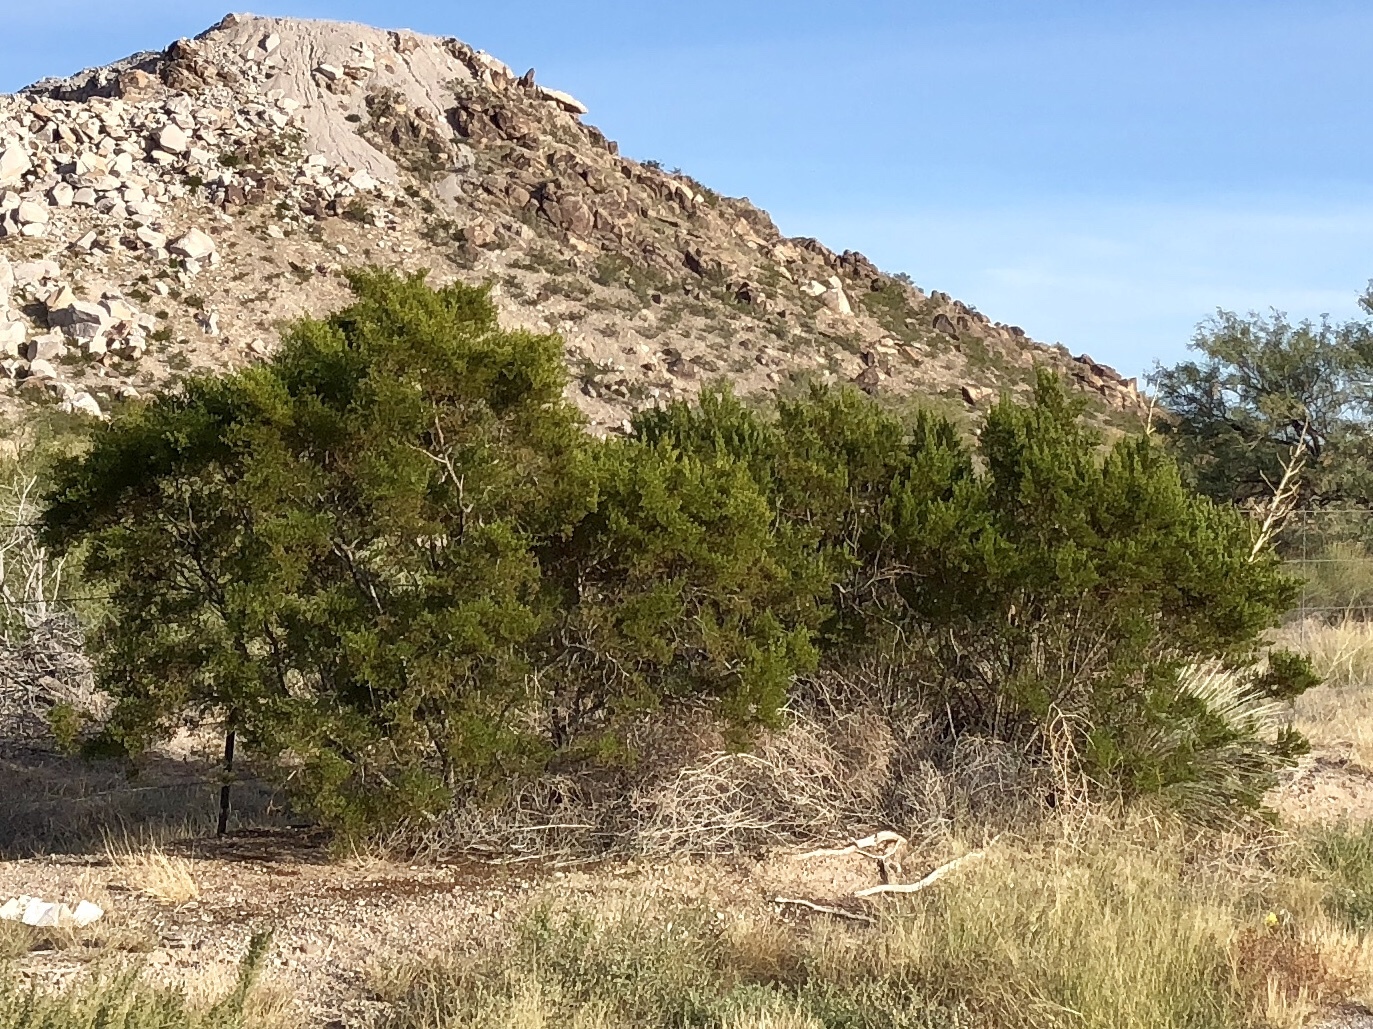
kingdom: Plantae
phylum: Tracheophyta
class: Magnoliopsida
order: Zygophyllales
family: Zygophyllaceae
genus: Larrea
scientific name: Larrea tridentata
